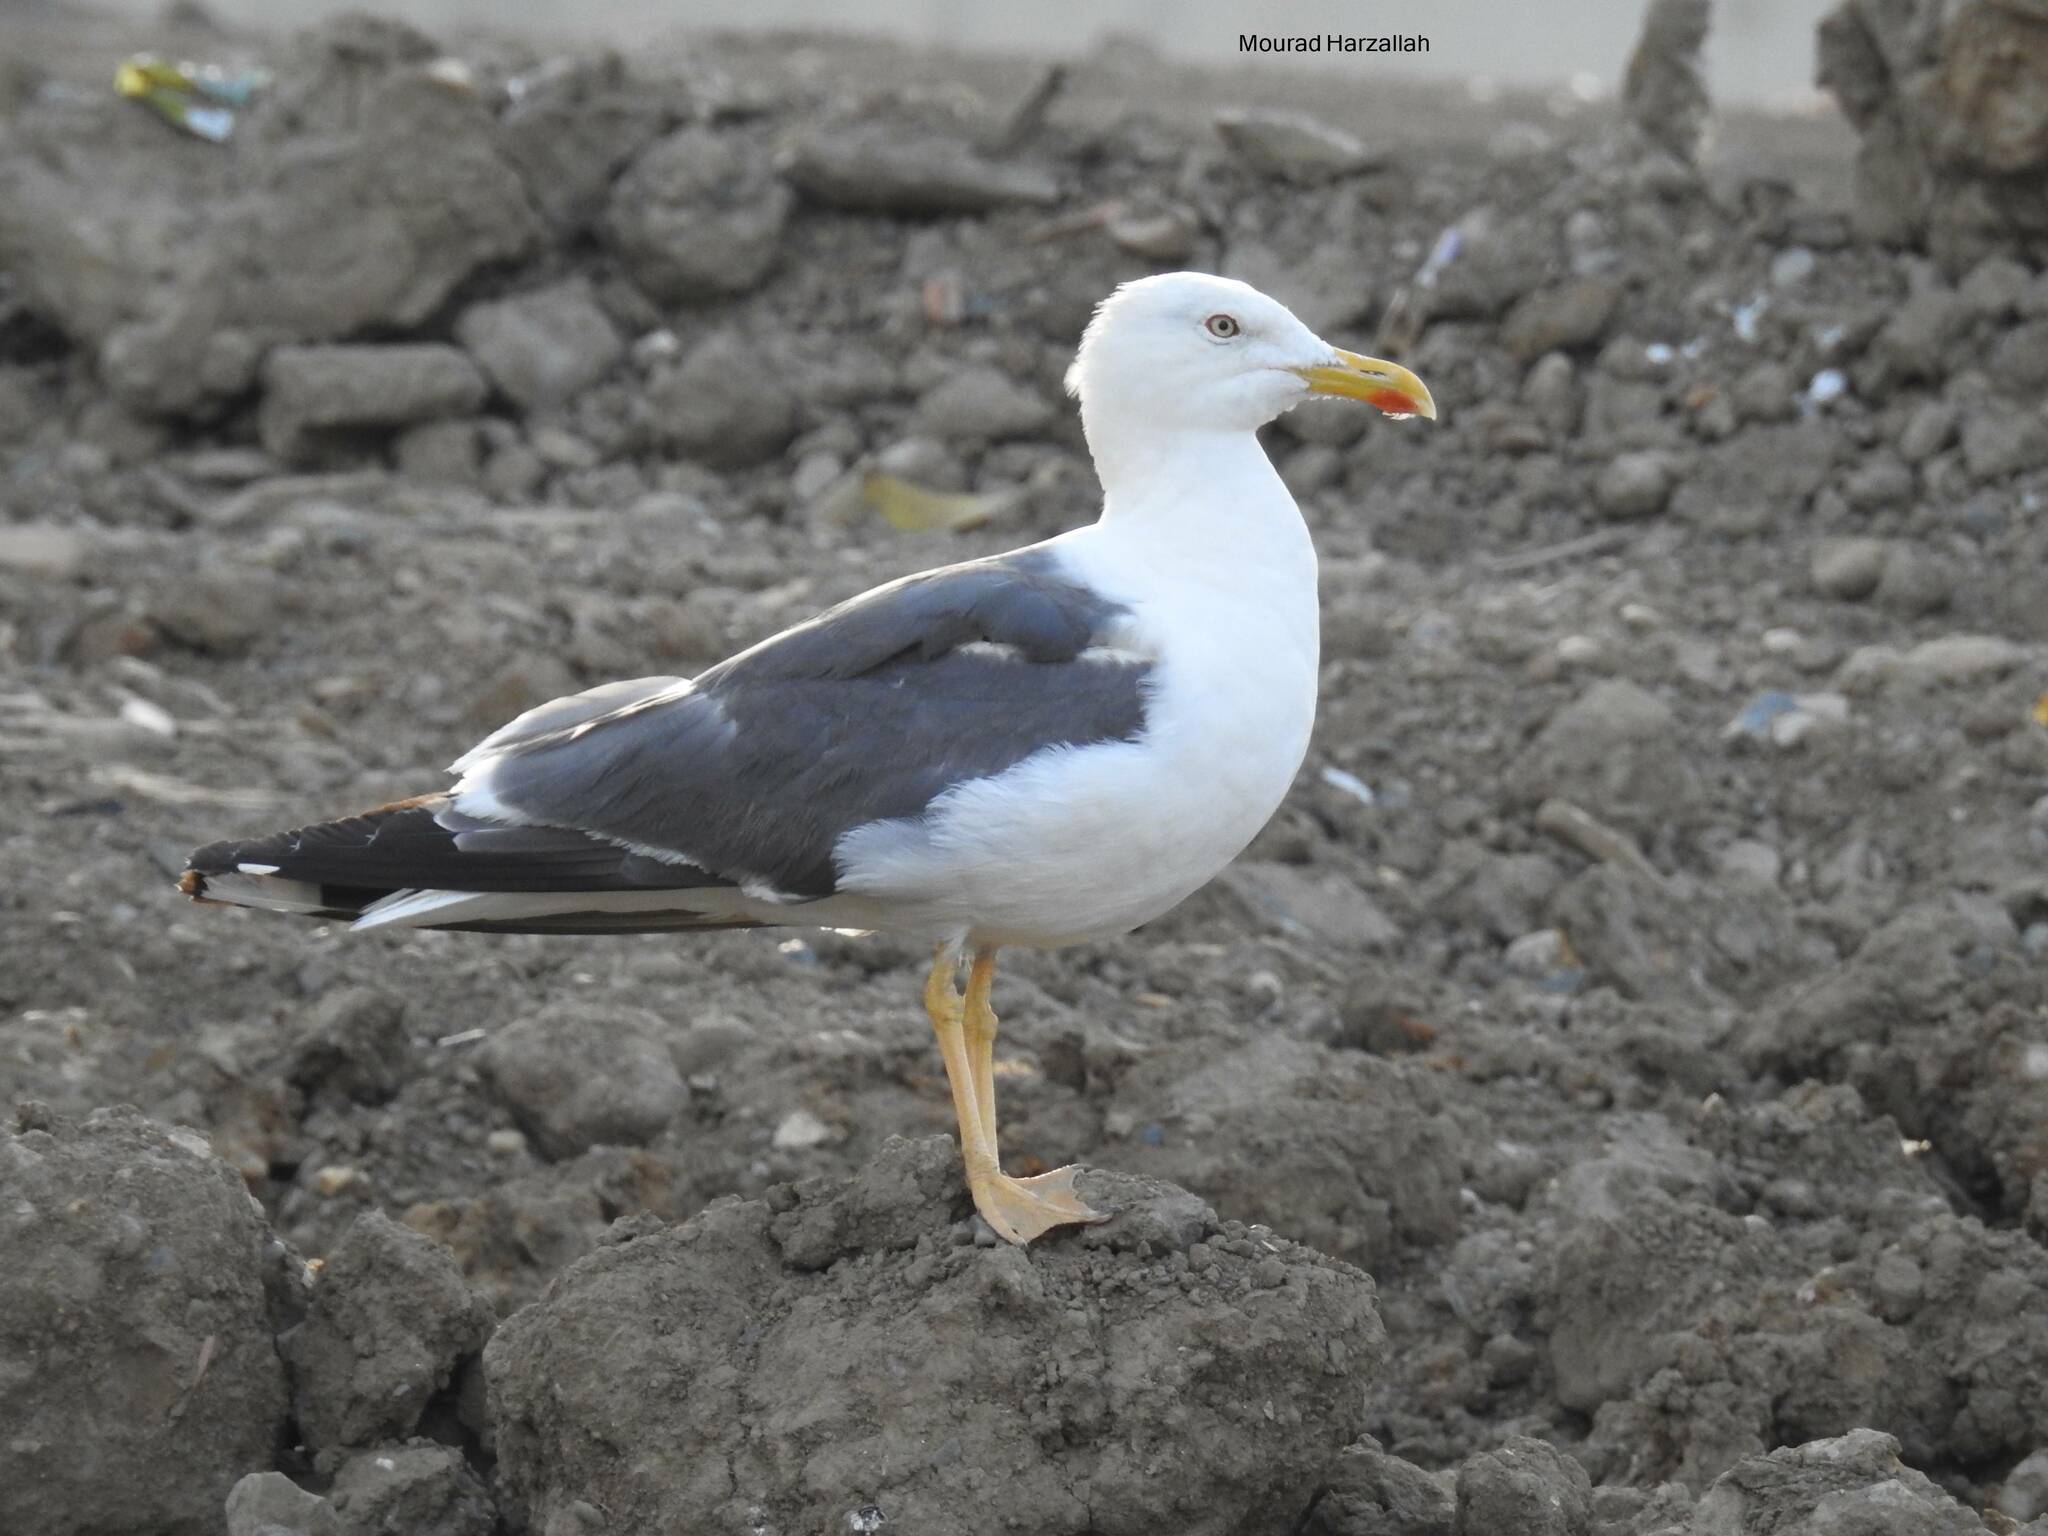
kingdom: Animalia
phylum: Chordata
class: Aves
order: Charadriiformes
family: Laridae
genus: Larus
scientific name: Larus fuscus
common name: Lesser black-backed gull
